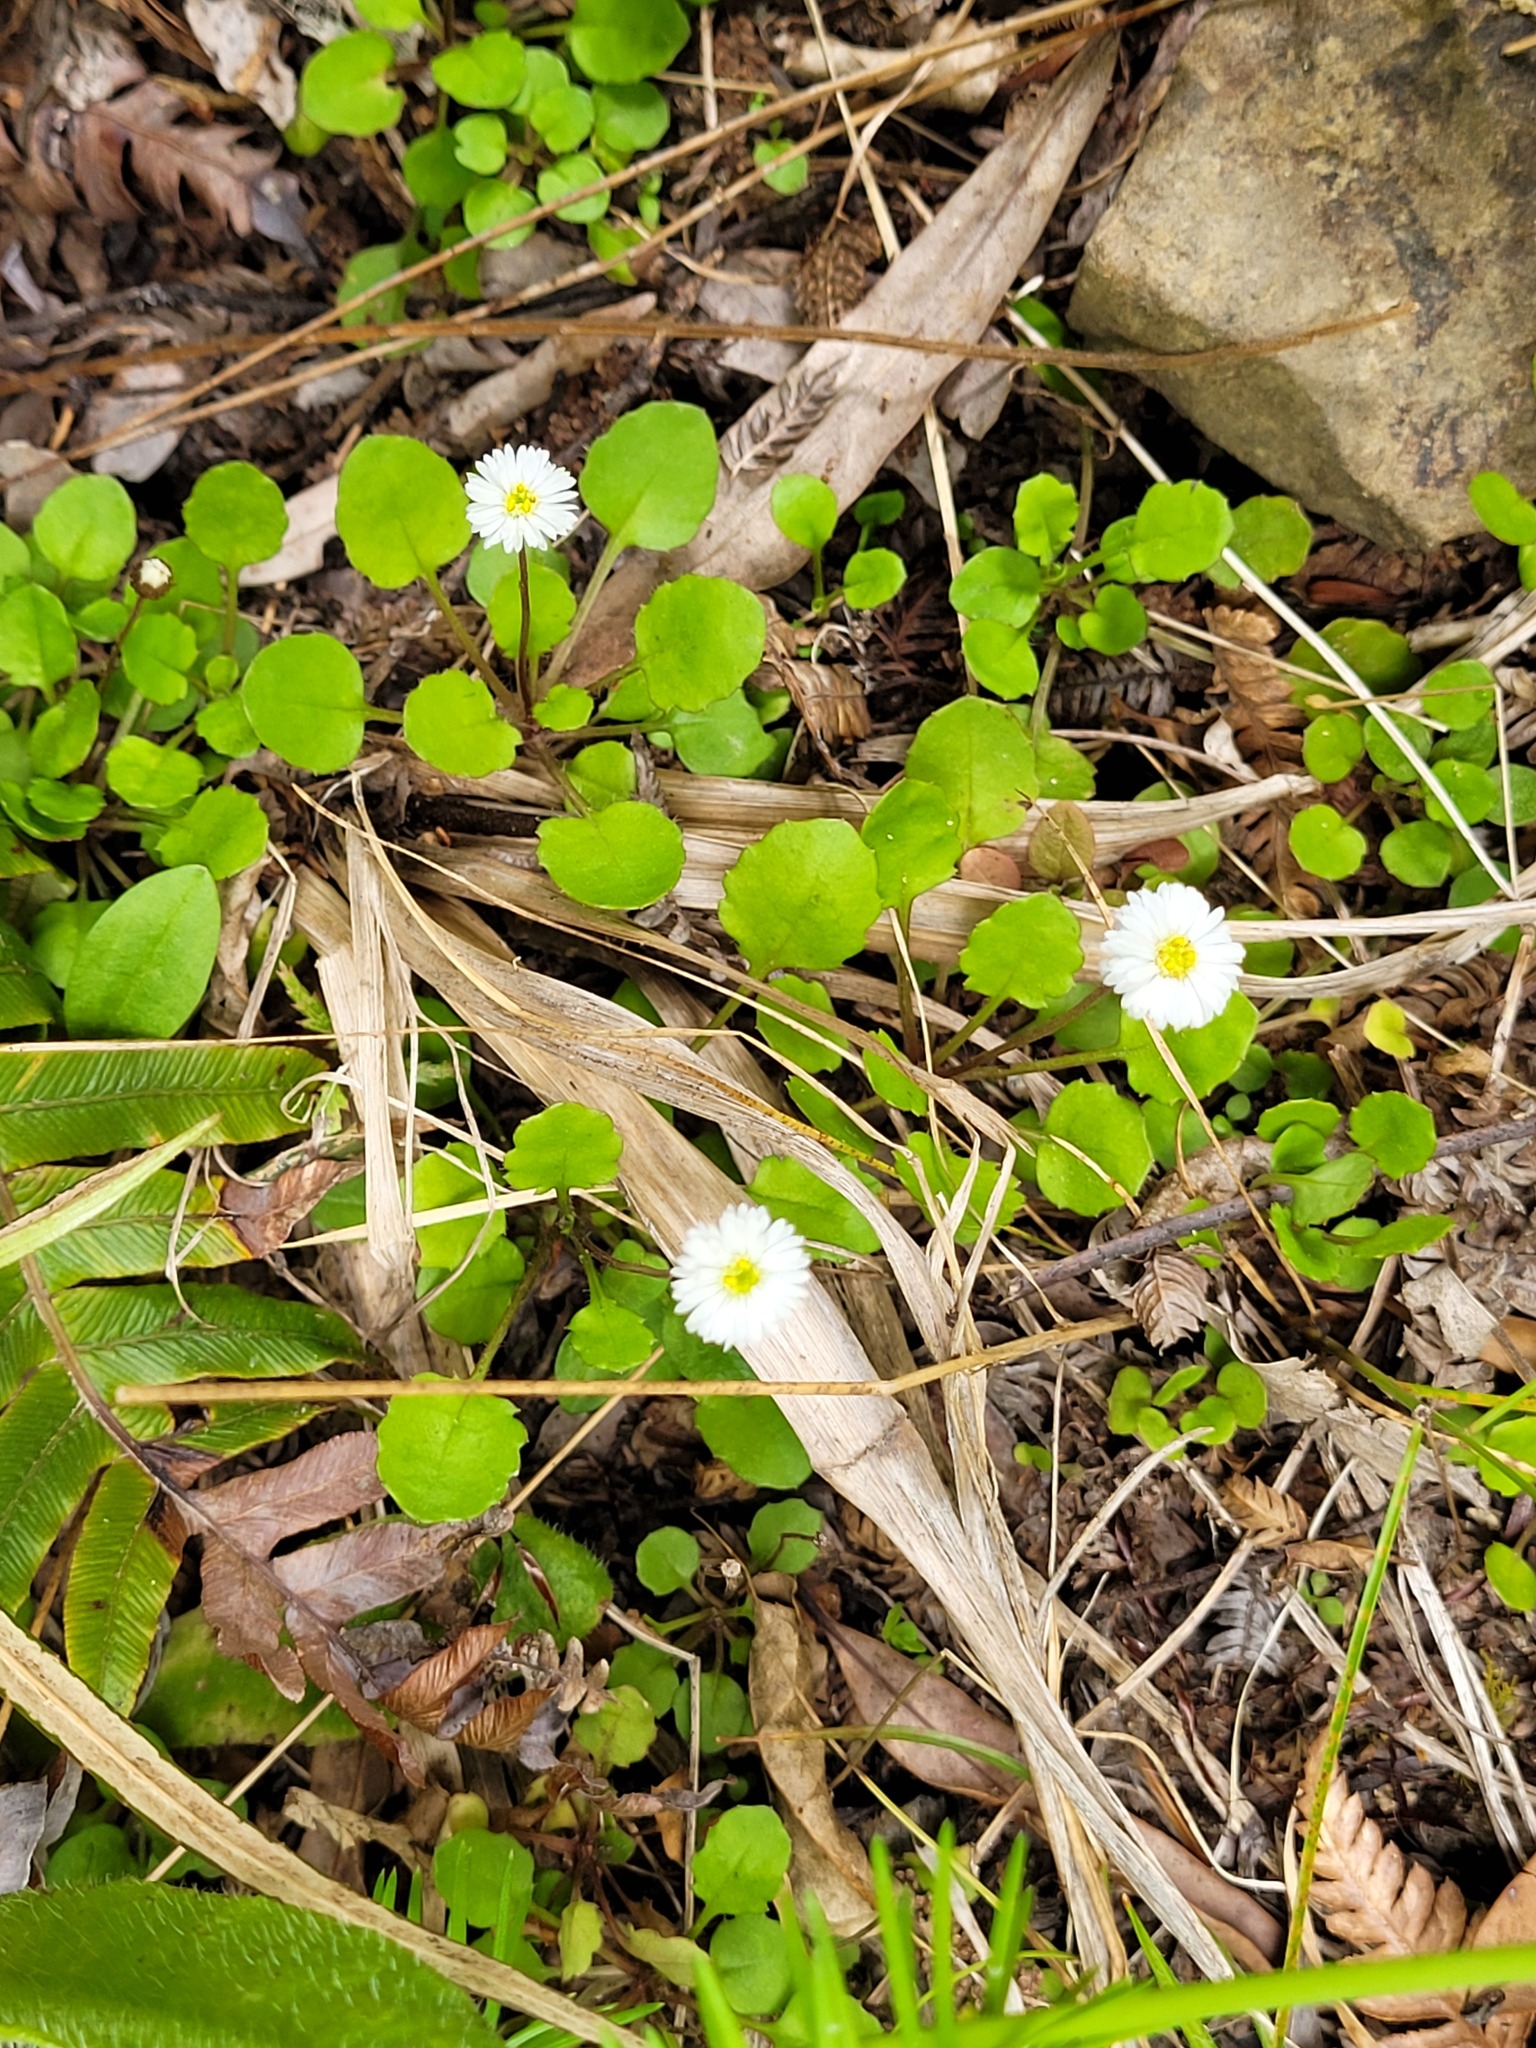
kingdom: Plantae
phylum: Tracheophyta
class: Magnoliopsida
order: Asterales
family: Asteraceae
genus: Lagenophora
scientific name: Lagenophora pumila
